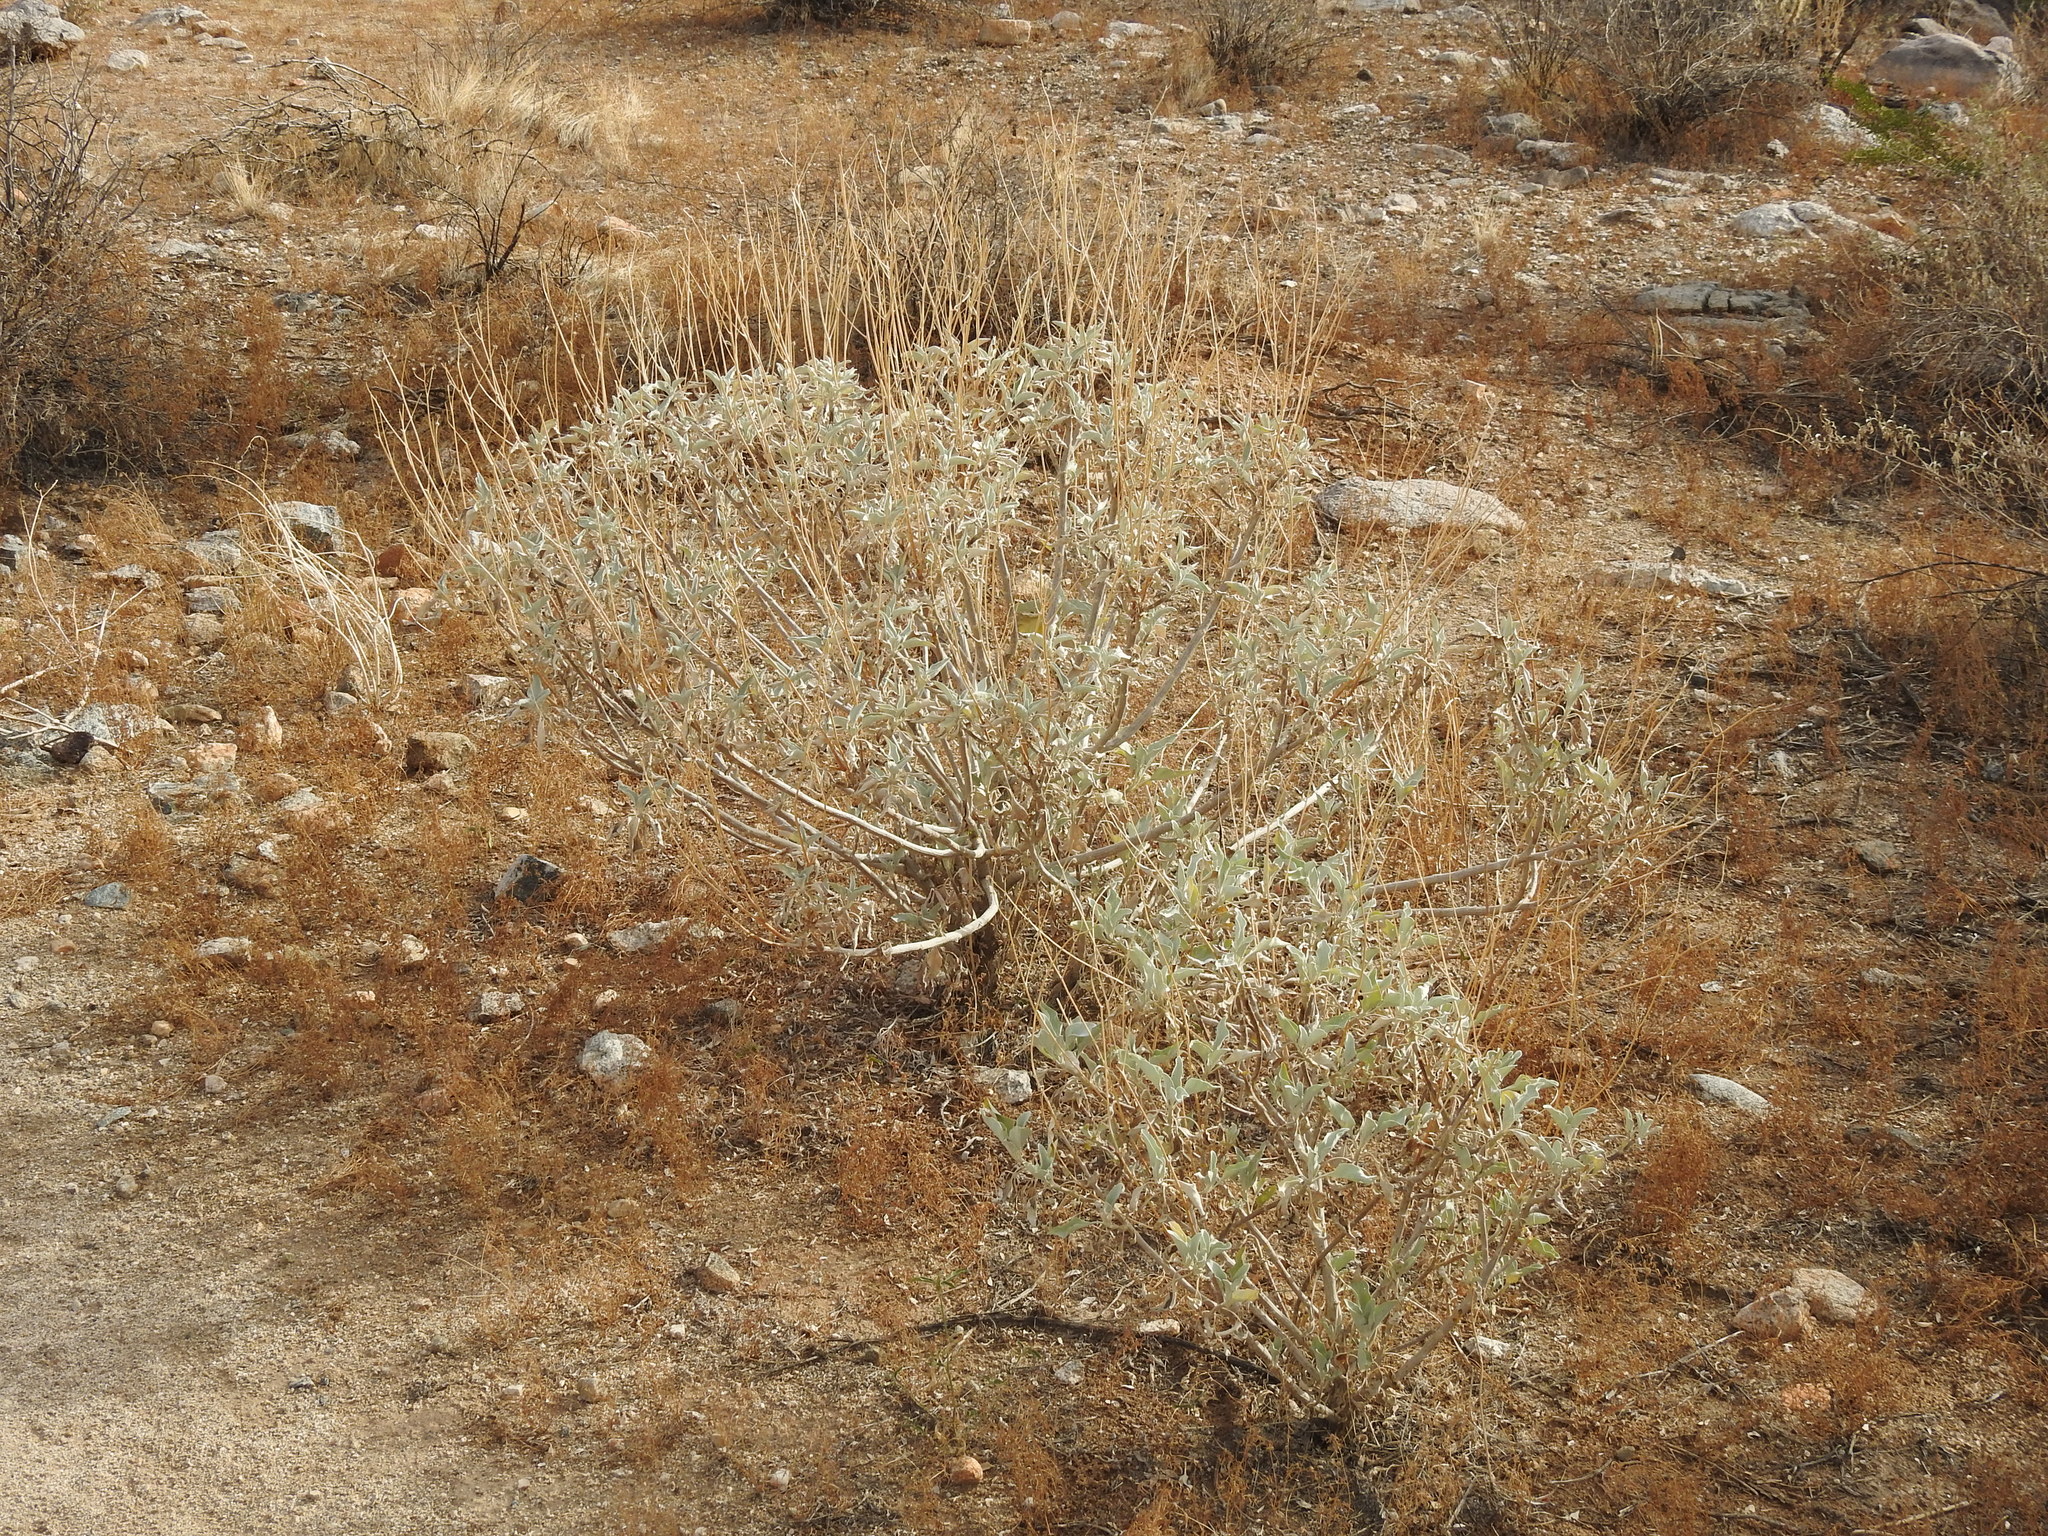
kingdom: Plantae
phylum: Tracheophyta
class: Magnoliopsida
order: Asterales
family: Asteraceae
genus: Encelia
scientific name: Encelia farinosa
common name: Brittlebush
